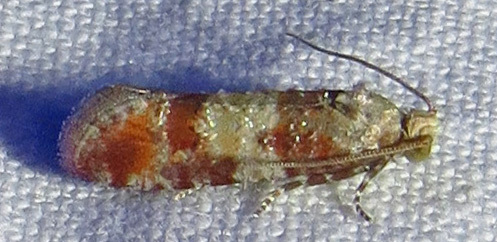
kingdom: Animalia
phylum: Arthropoda
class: Insecta
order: Lepidoptera
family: Tortricidae
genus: Rhyacionia
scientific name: Rhyacionia rigidana
